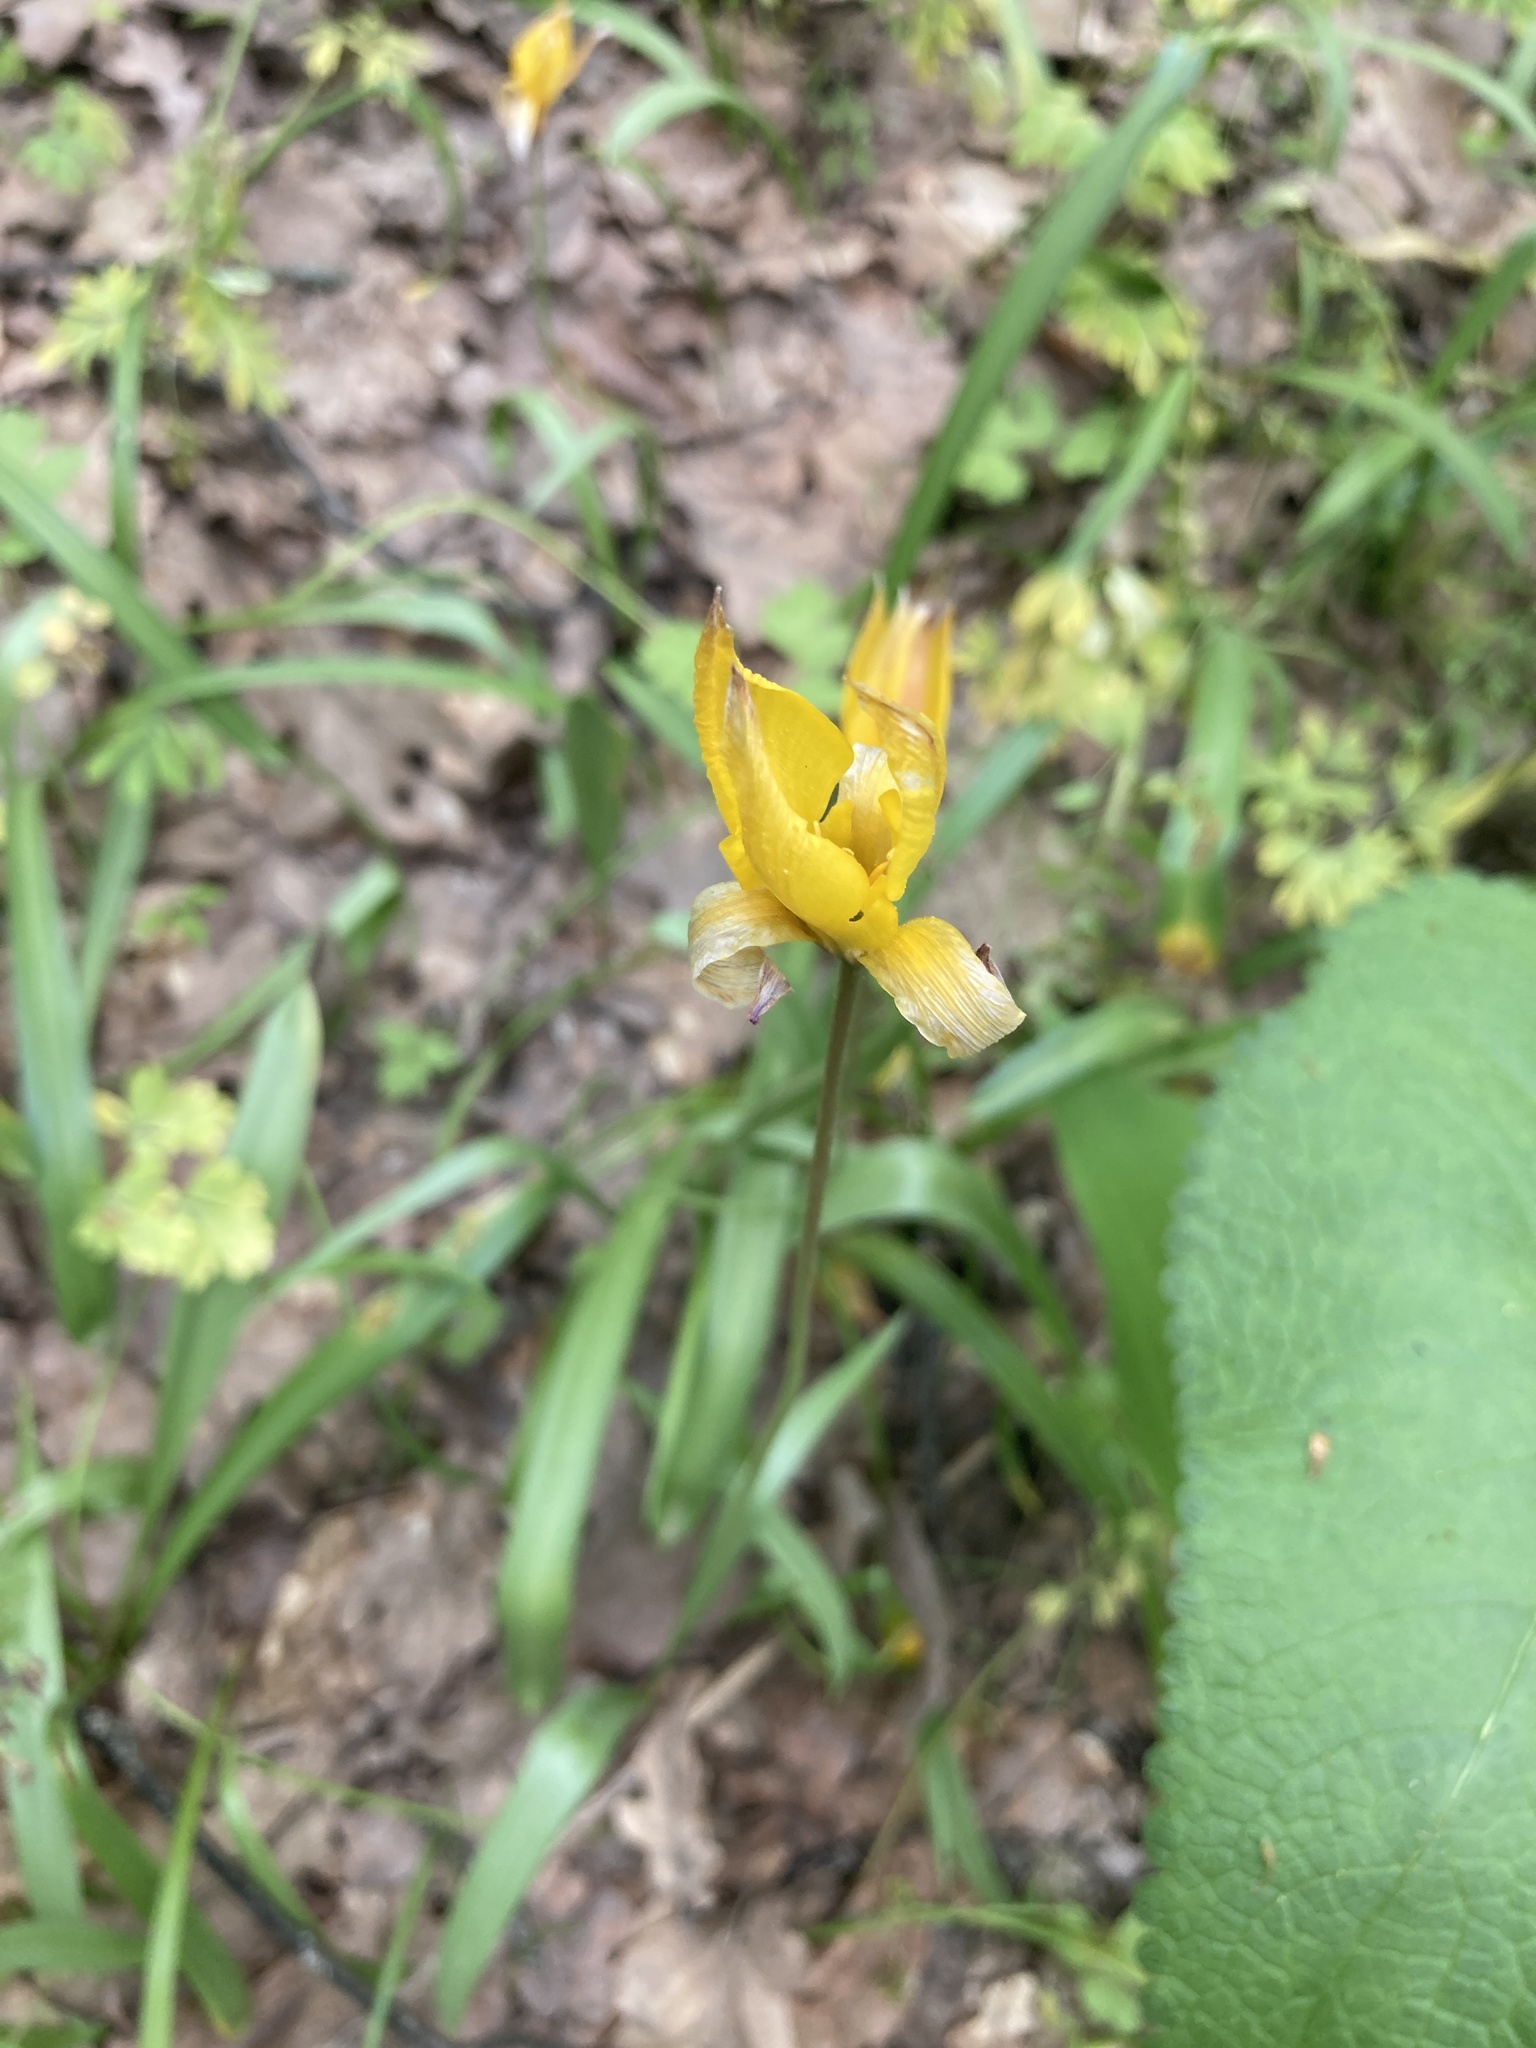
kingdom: Plantae
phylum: Tracheophyta
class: Liliopsida
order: Liliales
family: Liliaceae
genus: Tulipa
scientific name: Tulipa sylvestris
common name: Wild tulip
